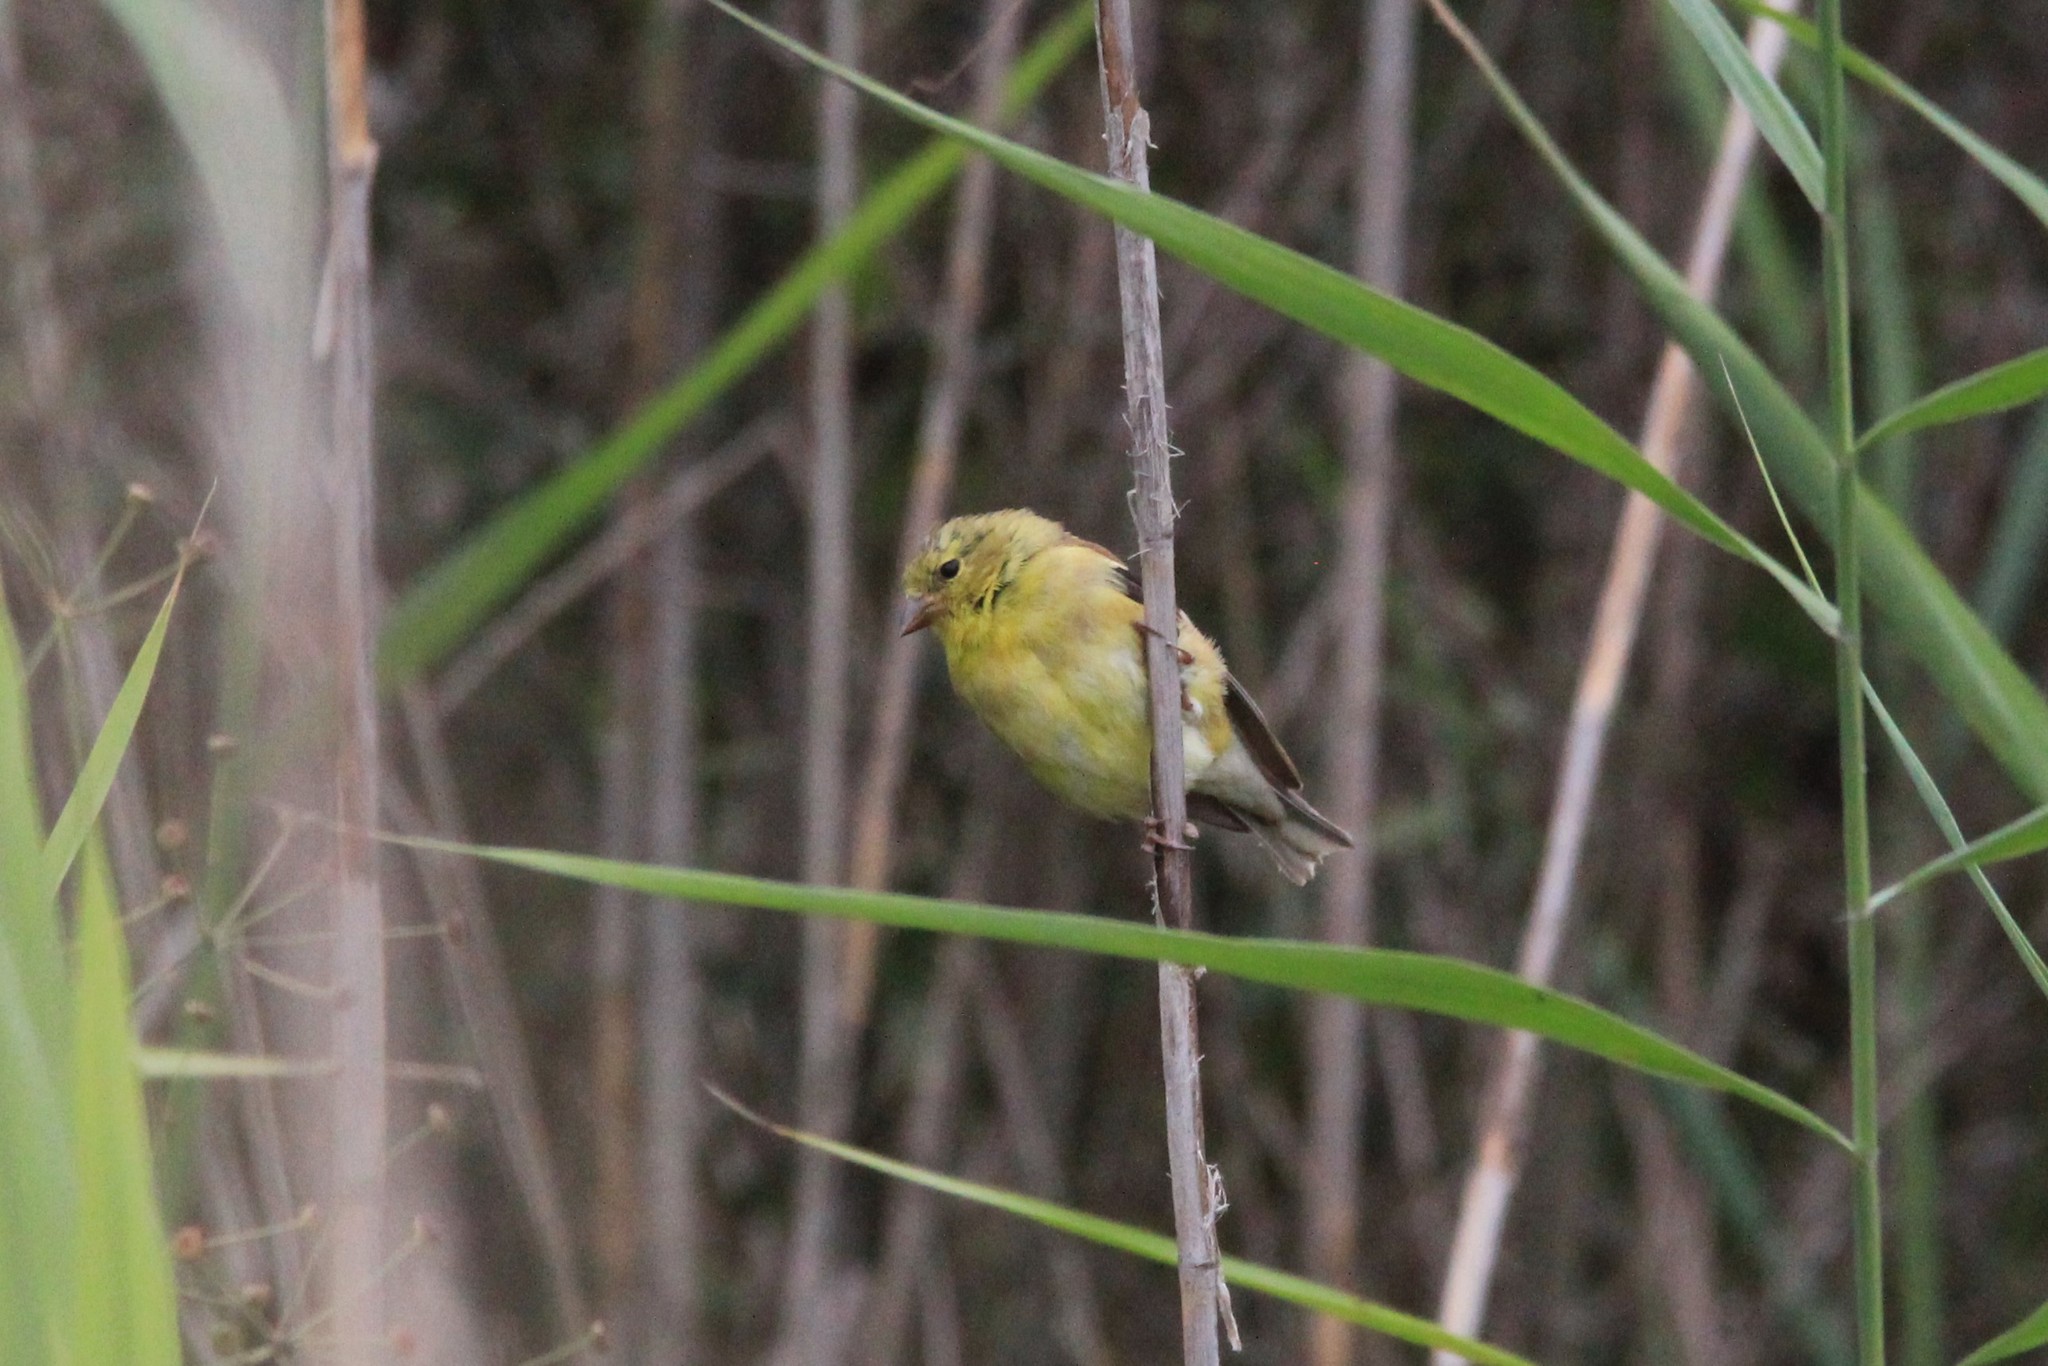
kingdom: Animalia
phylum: Chordata
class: Aves
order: Passeriformes
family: Fringillidae
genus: Spinus
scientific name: Spinus tristis
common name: American goldfinch
